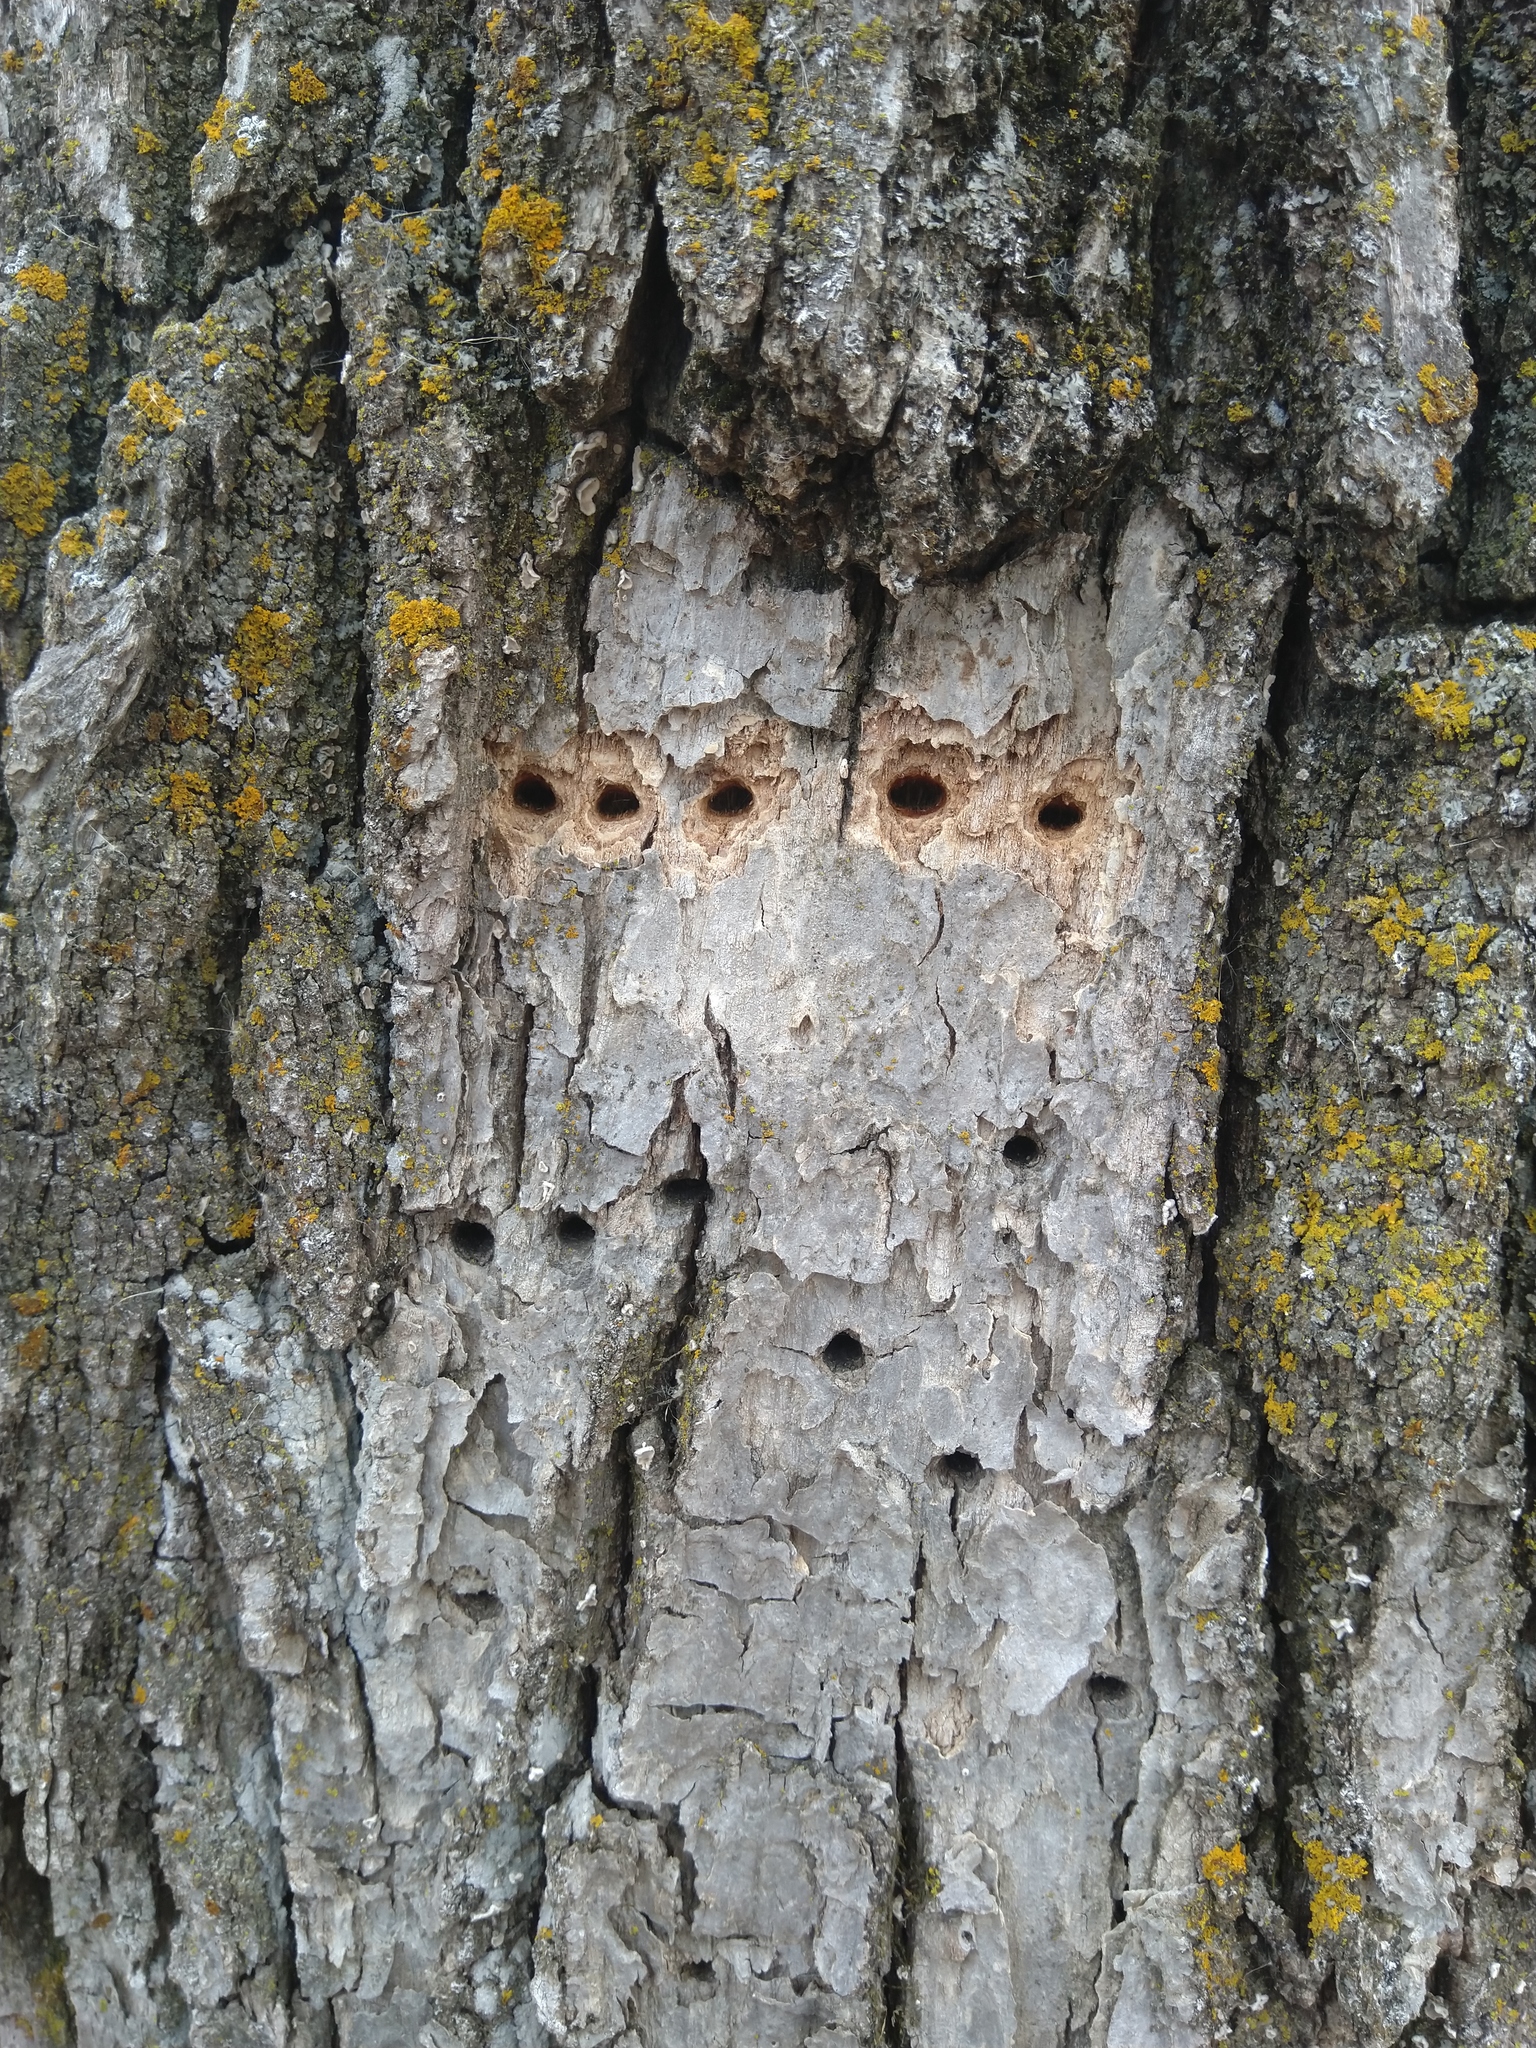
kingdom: Animalia
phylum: Chordata
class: Aves
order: Piciformes
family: Picidae
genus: Sphyrapicus
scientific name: Sphyrapicus varius
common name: Yellow-bellied sapsucker
